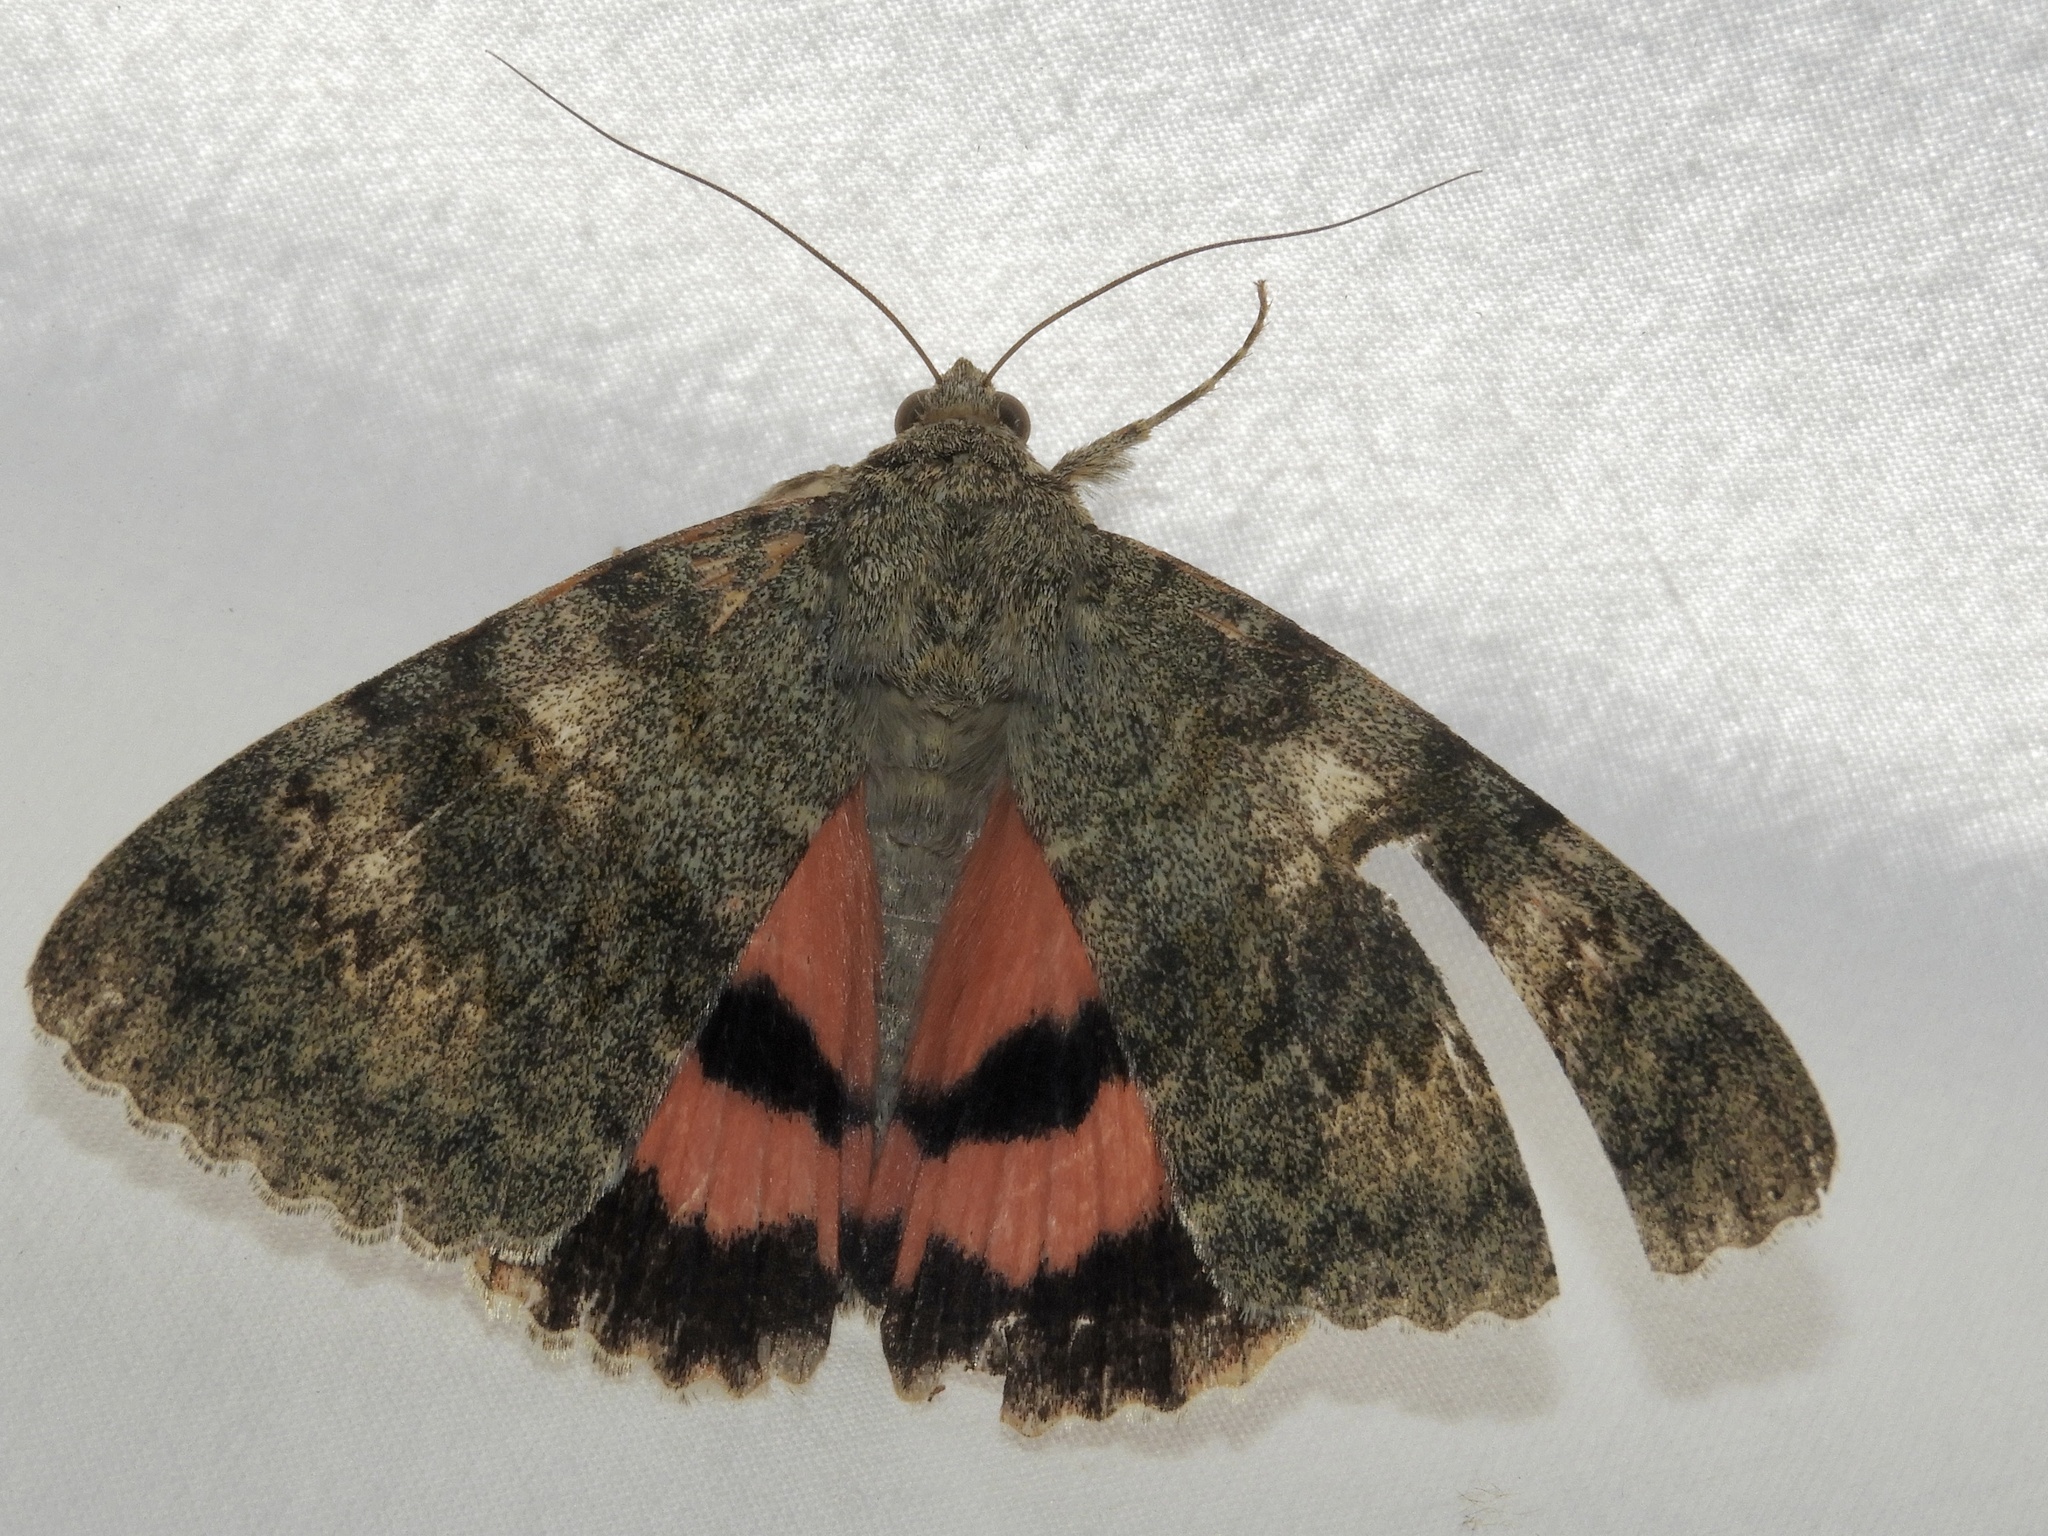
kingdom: Animalia
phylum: Arthropoda
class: Insecta
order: Lepidoptera
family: Erebidae
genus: Catocala
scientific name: Catocala elocata
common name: French red underwing
